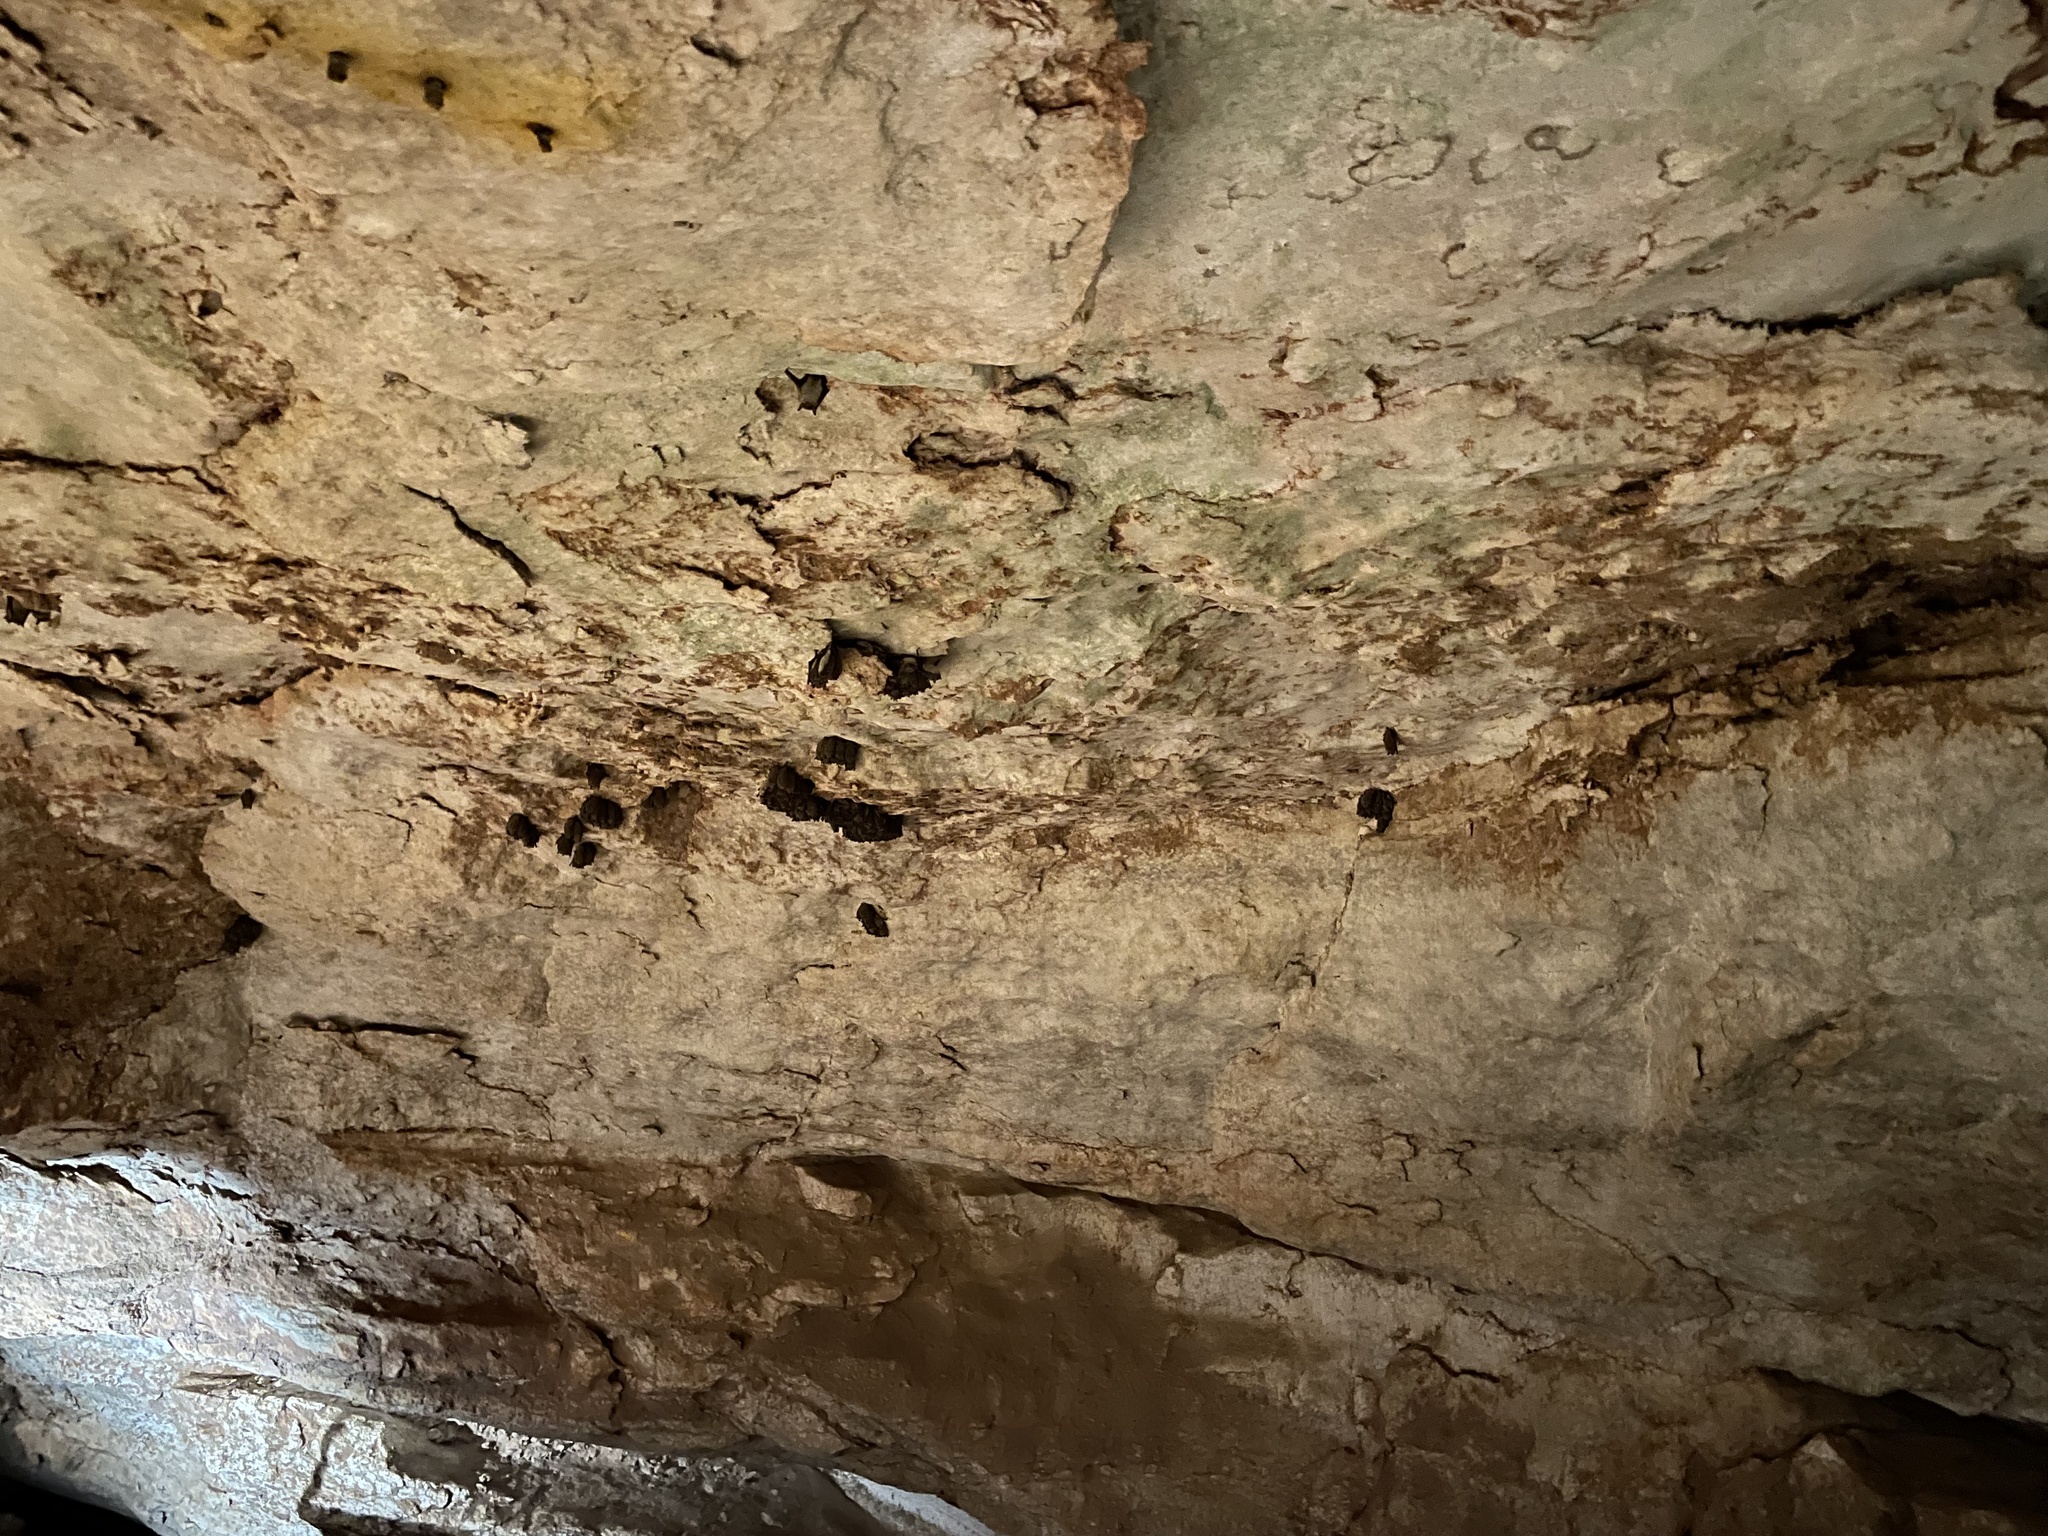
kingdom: Animalia
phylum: Chordata
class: Mammalia
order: Chiroptera
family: Vespertilionidae
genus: Myotis
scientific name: Myotis velifer
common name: Cave myotis
